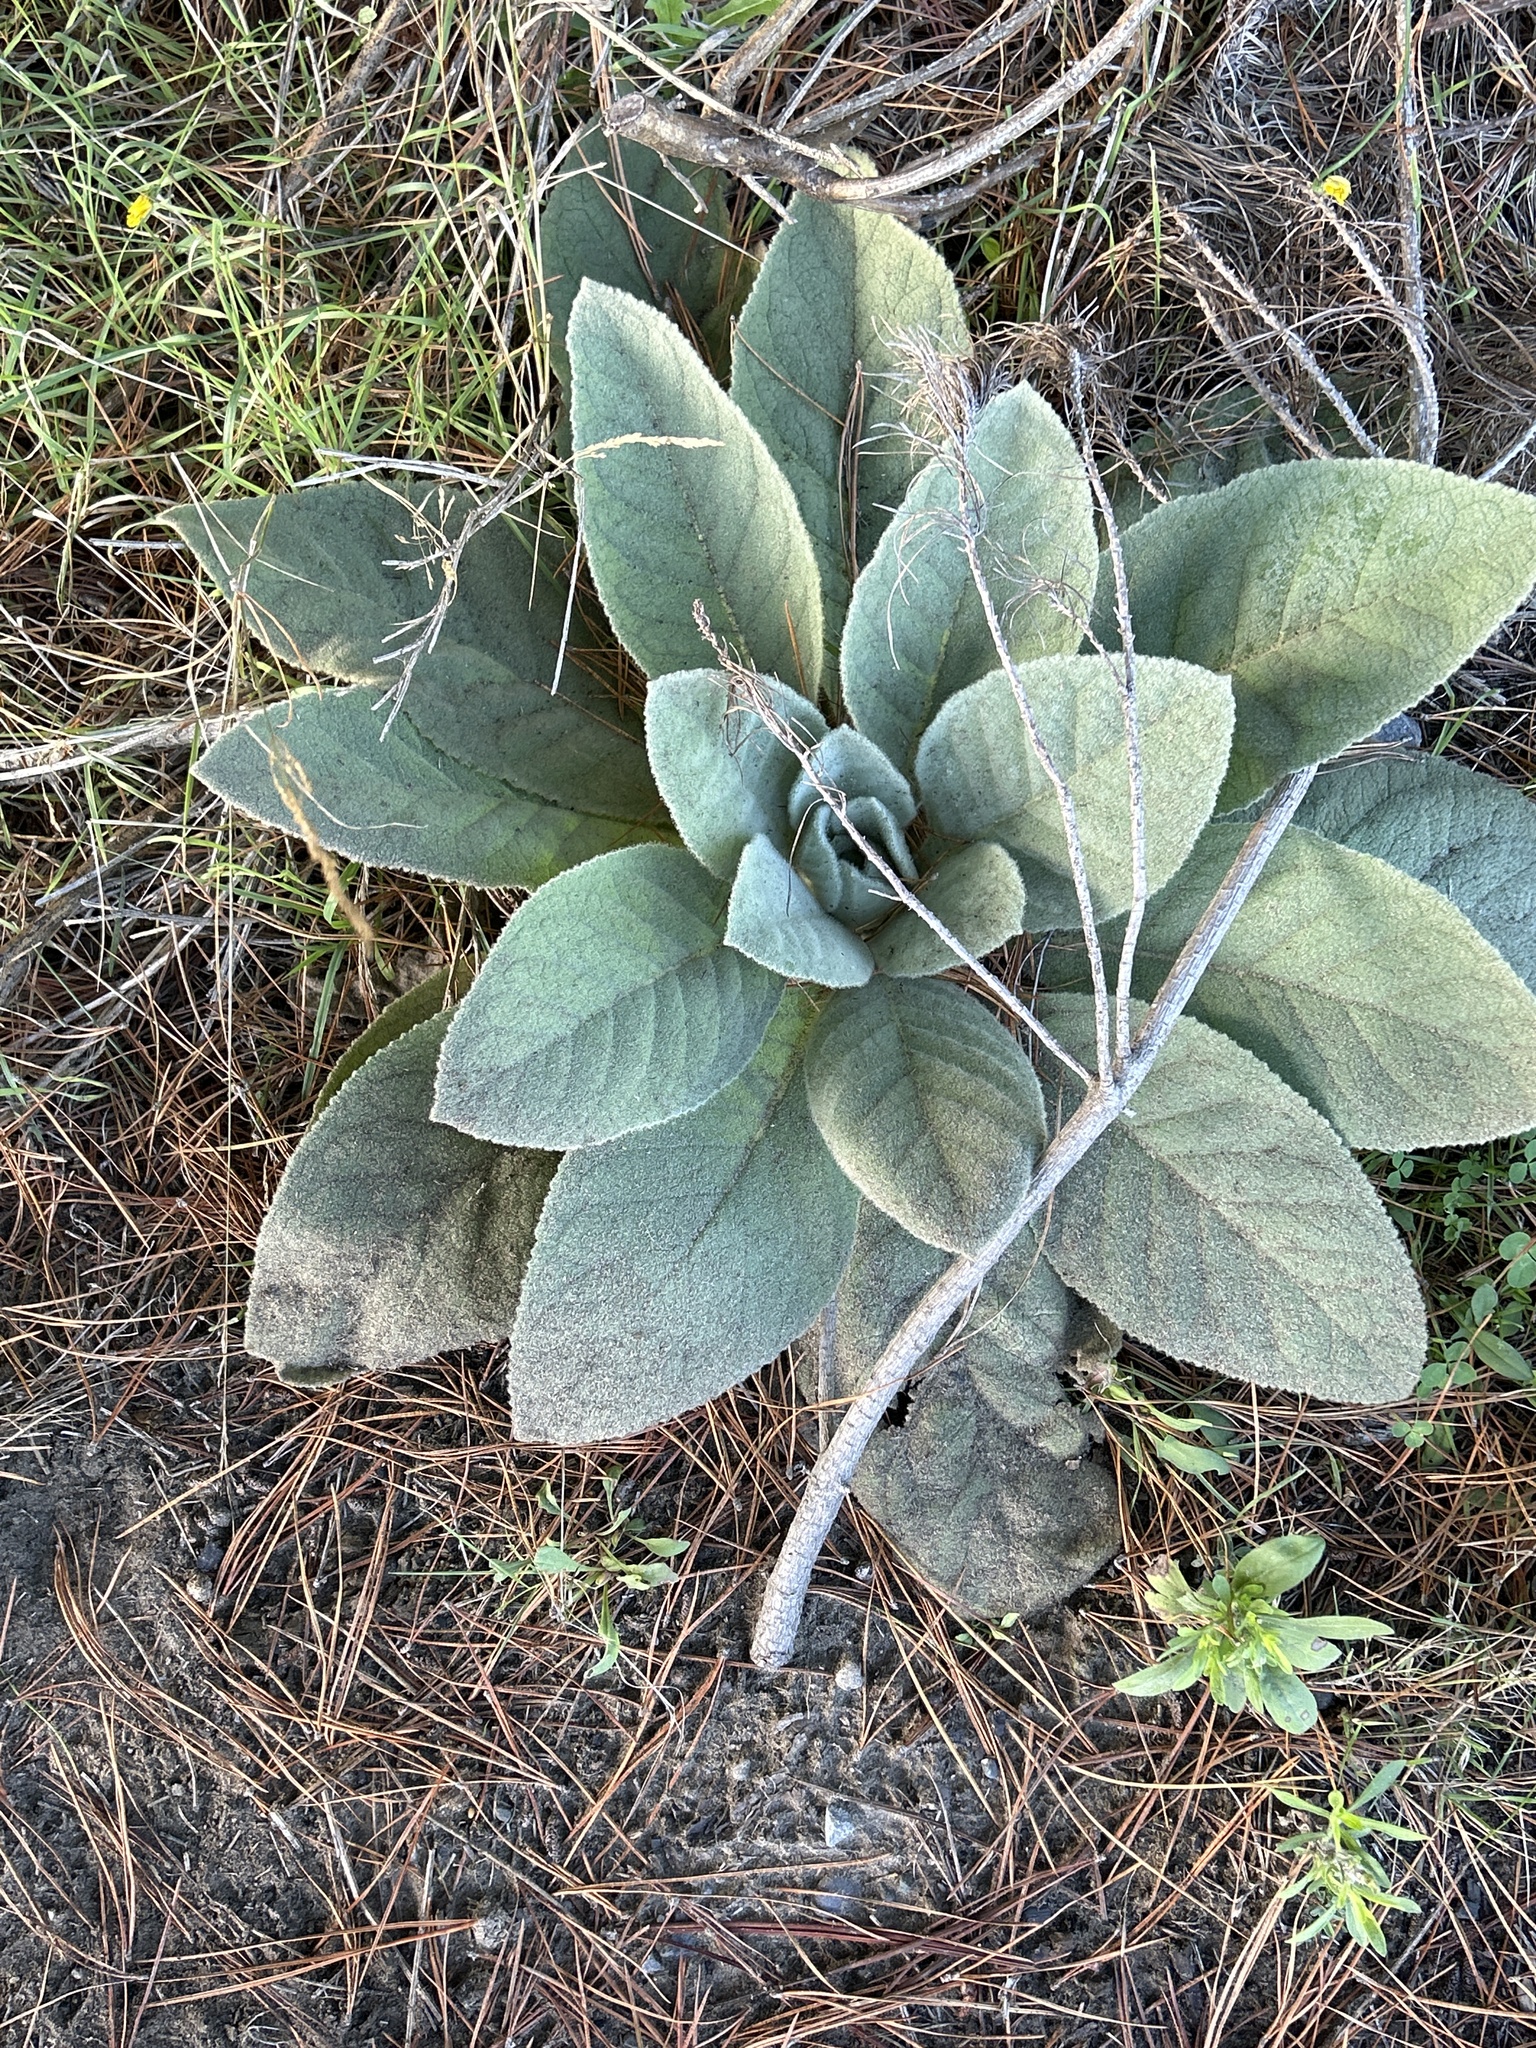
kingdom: Plantae
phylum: Tracheophyta
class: Magnoliopsida
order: Lamiales
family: Scrophulariaceae
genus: Verbascum
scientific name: Verbascum thapsus
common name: Common mullein
